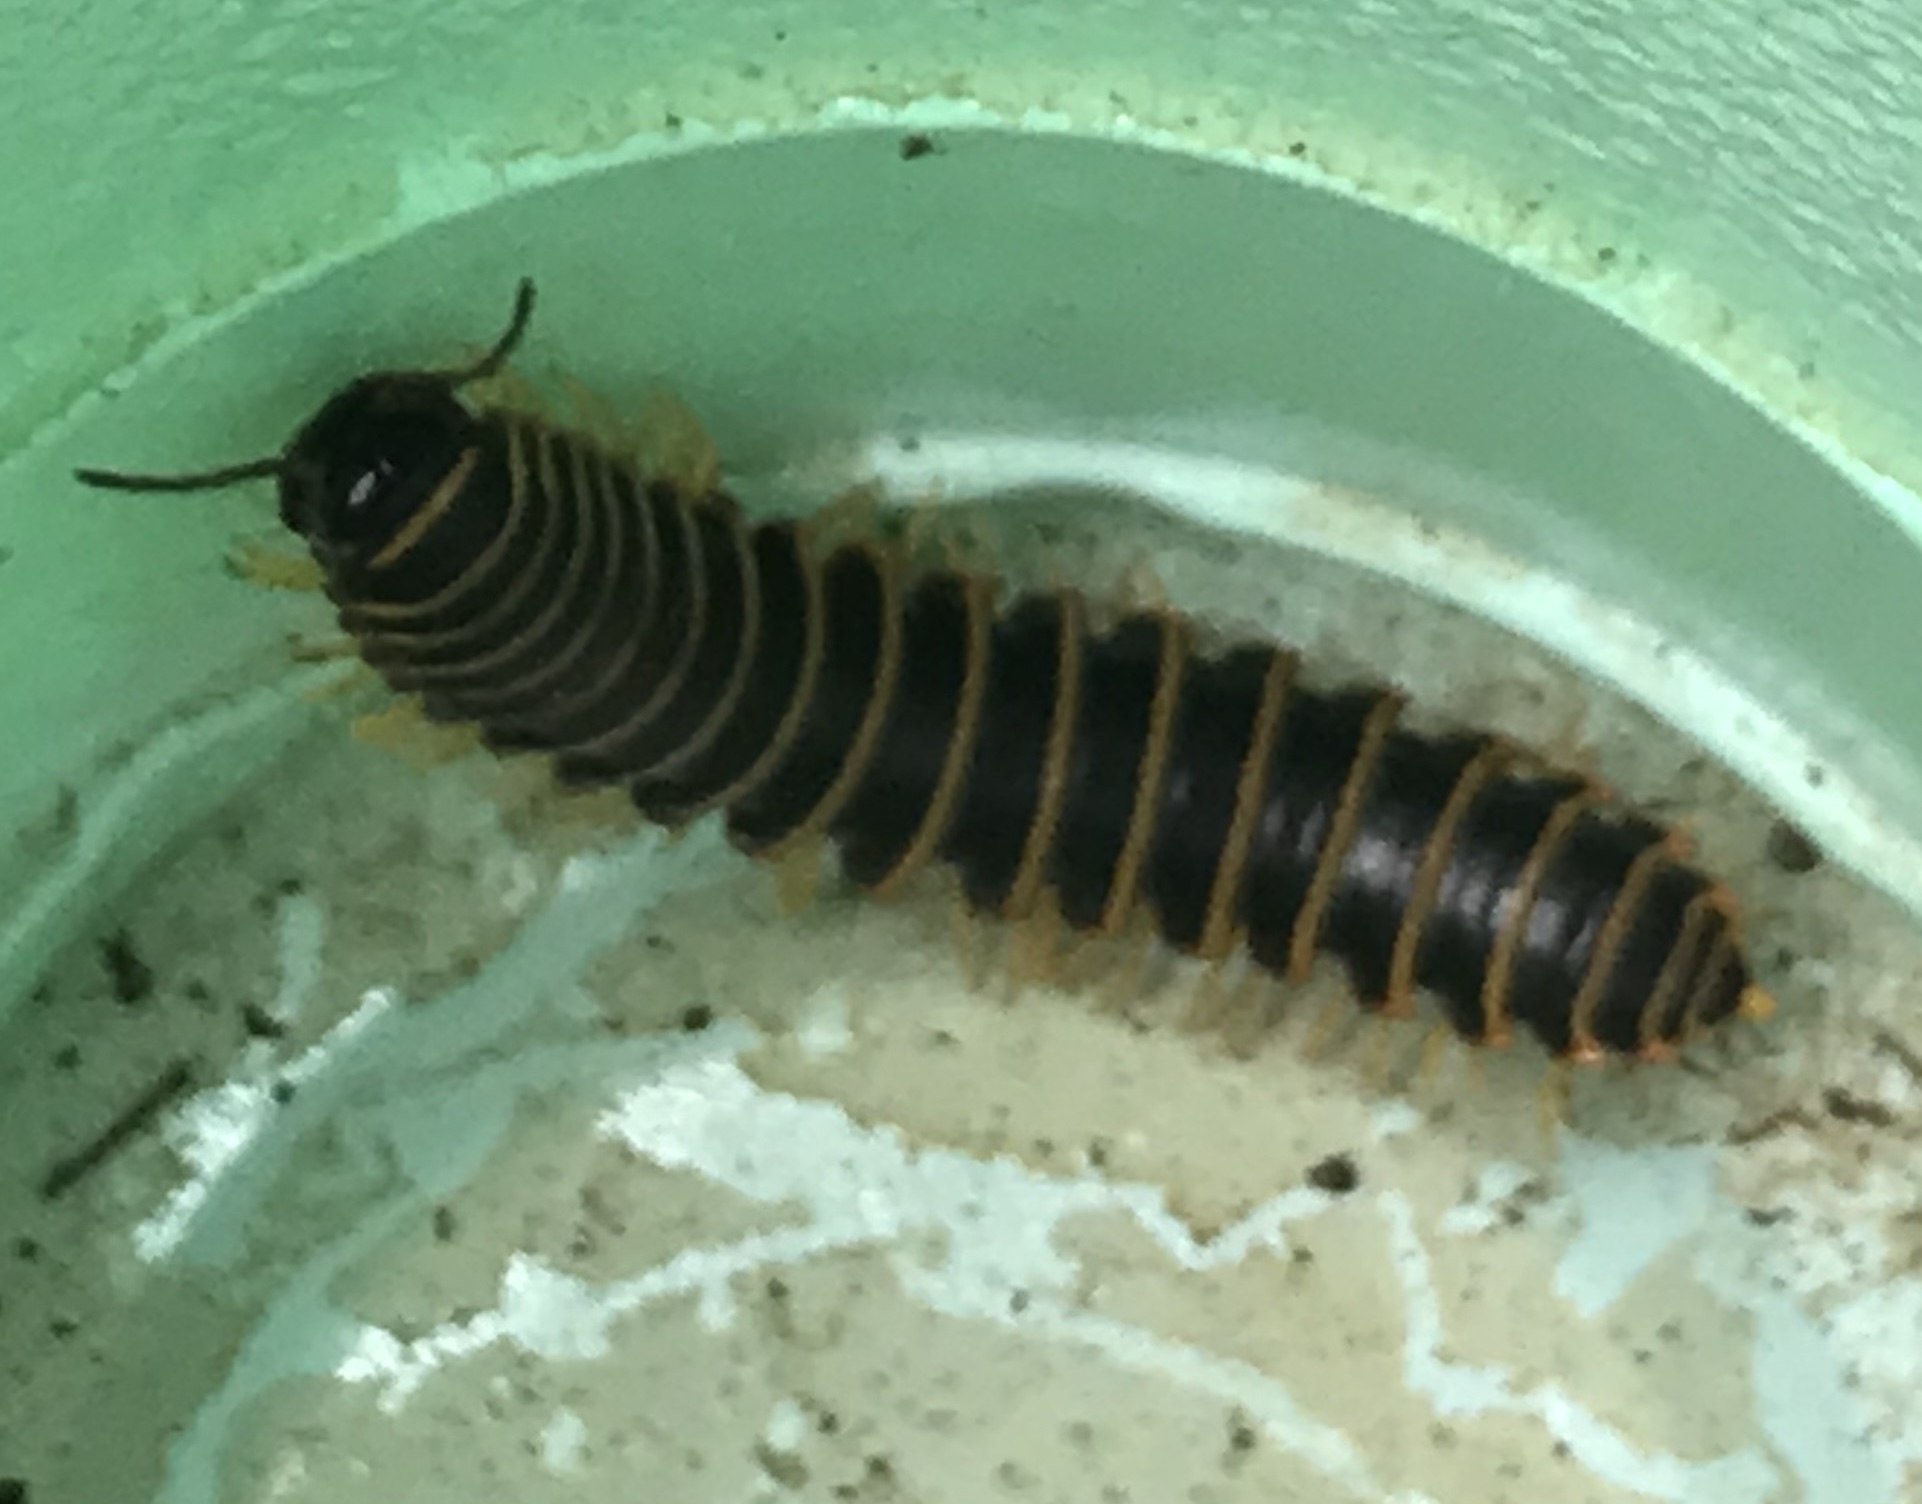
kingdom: Animalia
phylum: Arthropoda
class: Diplopoda
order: Polydesmida
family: Xystodesmidae
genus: Apheloria
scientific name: Apheloria virginiensis
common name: Black-and-gold flat millipede
